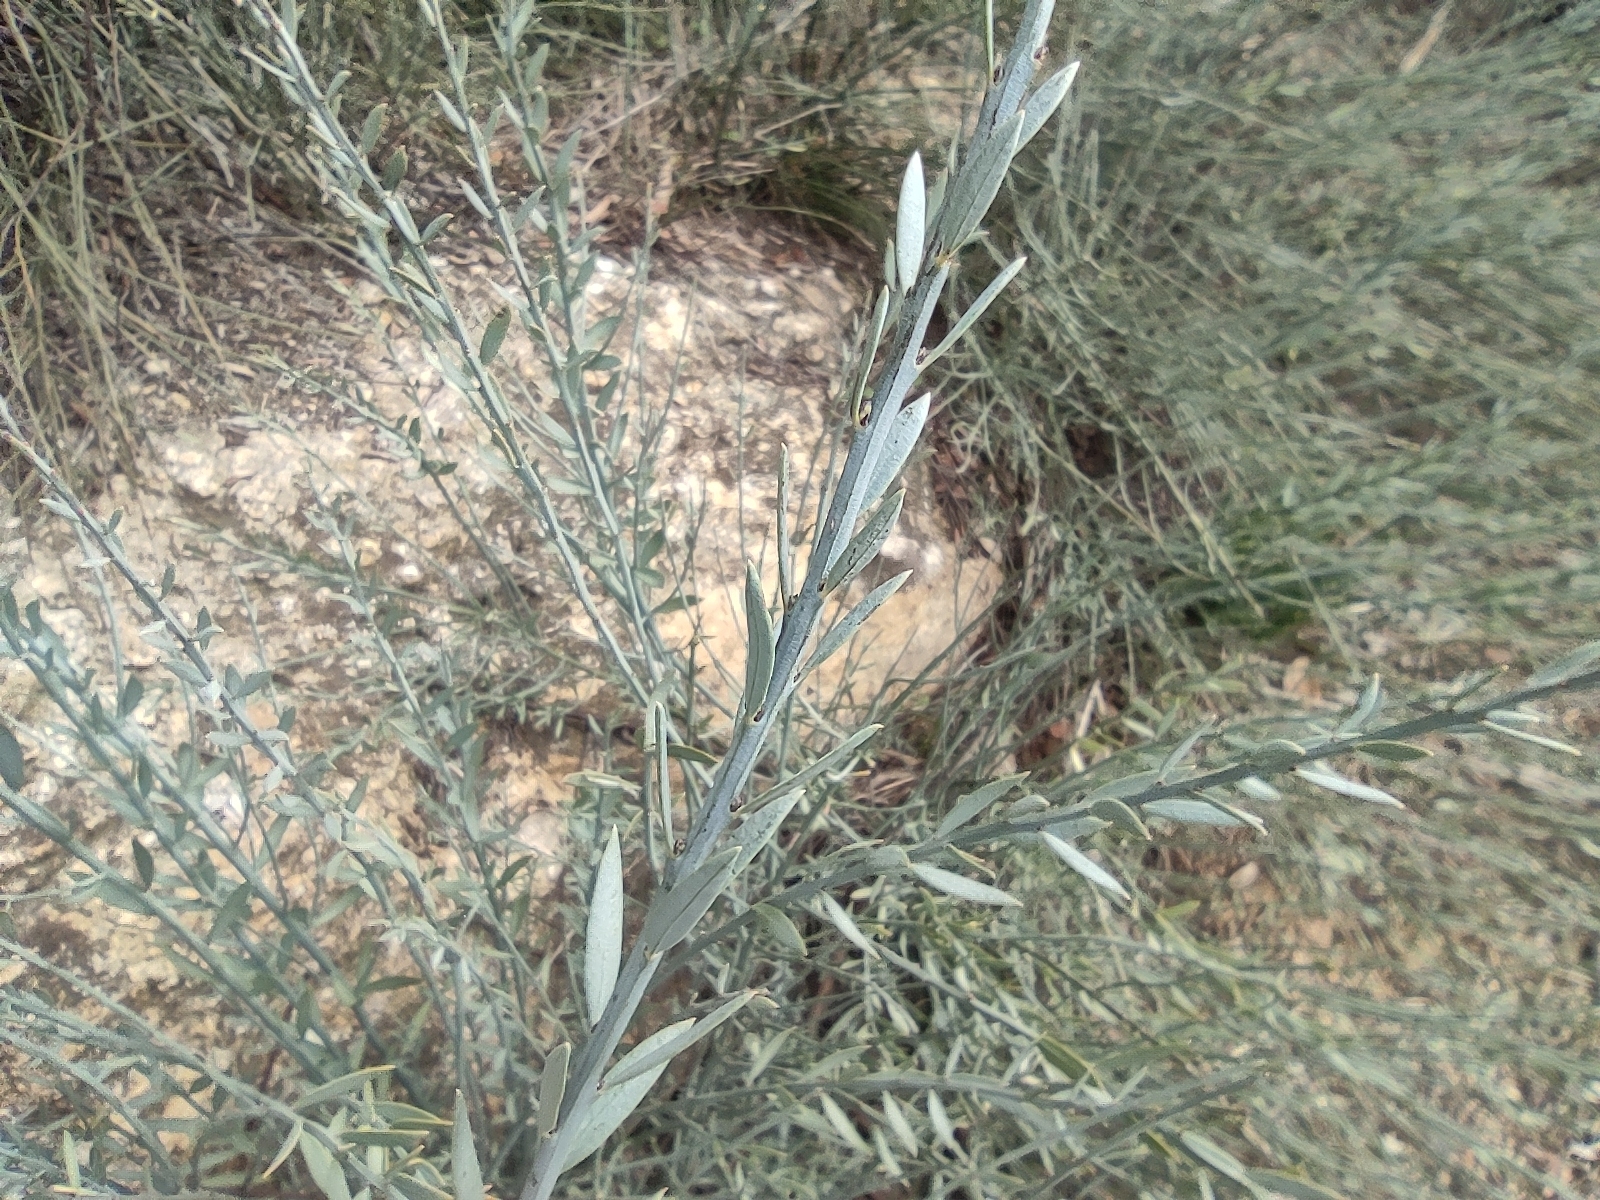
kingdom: Plantae
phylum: Tracheophyta
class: Magnoliopsida
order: Santalales
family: Santalaceae
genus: Osyris
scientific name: Osyris alba
